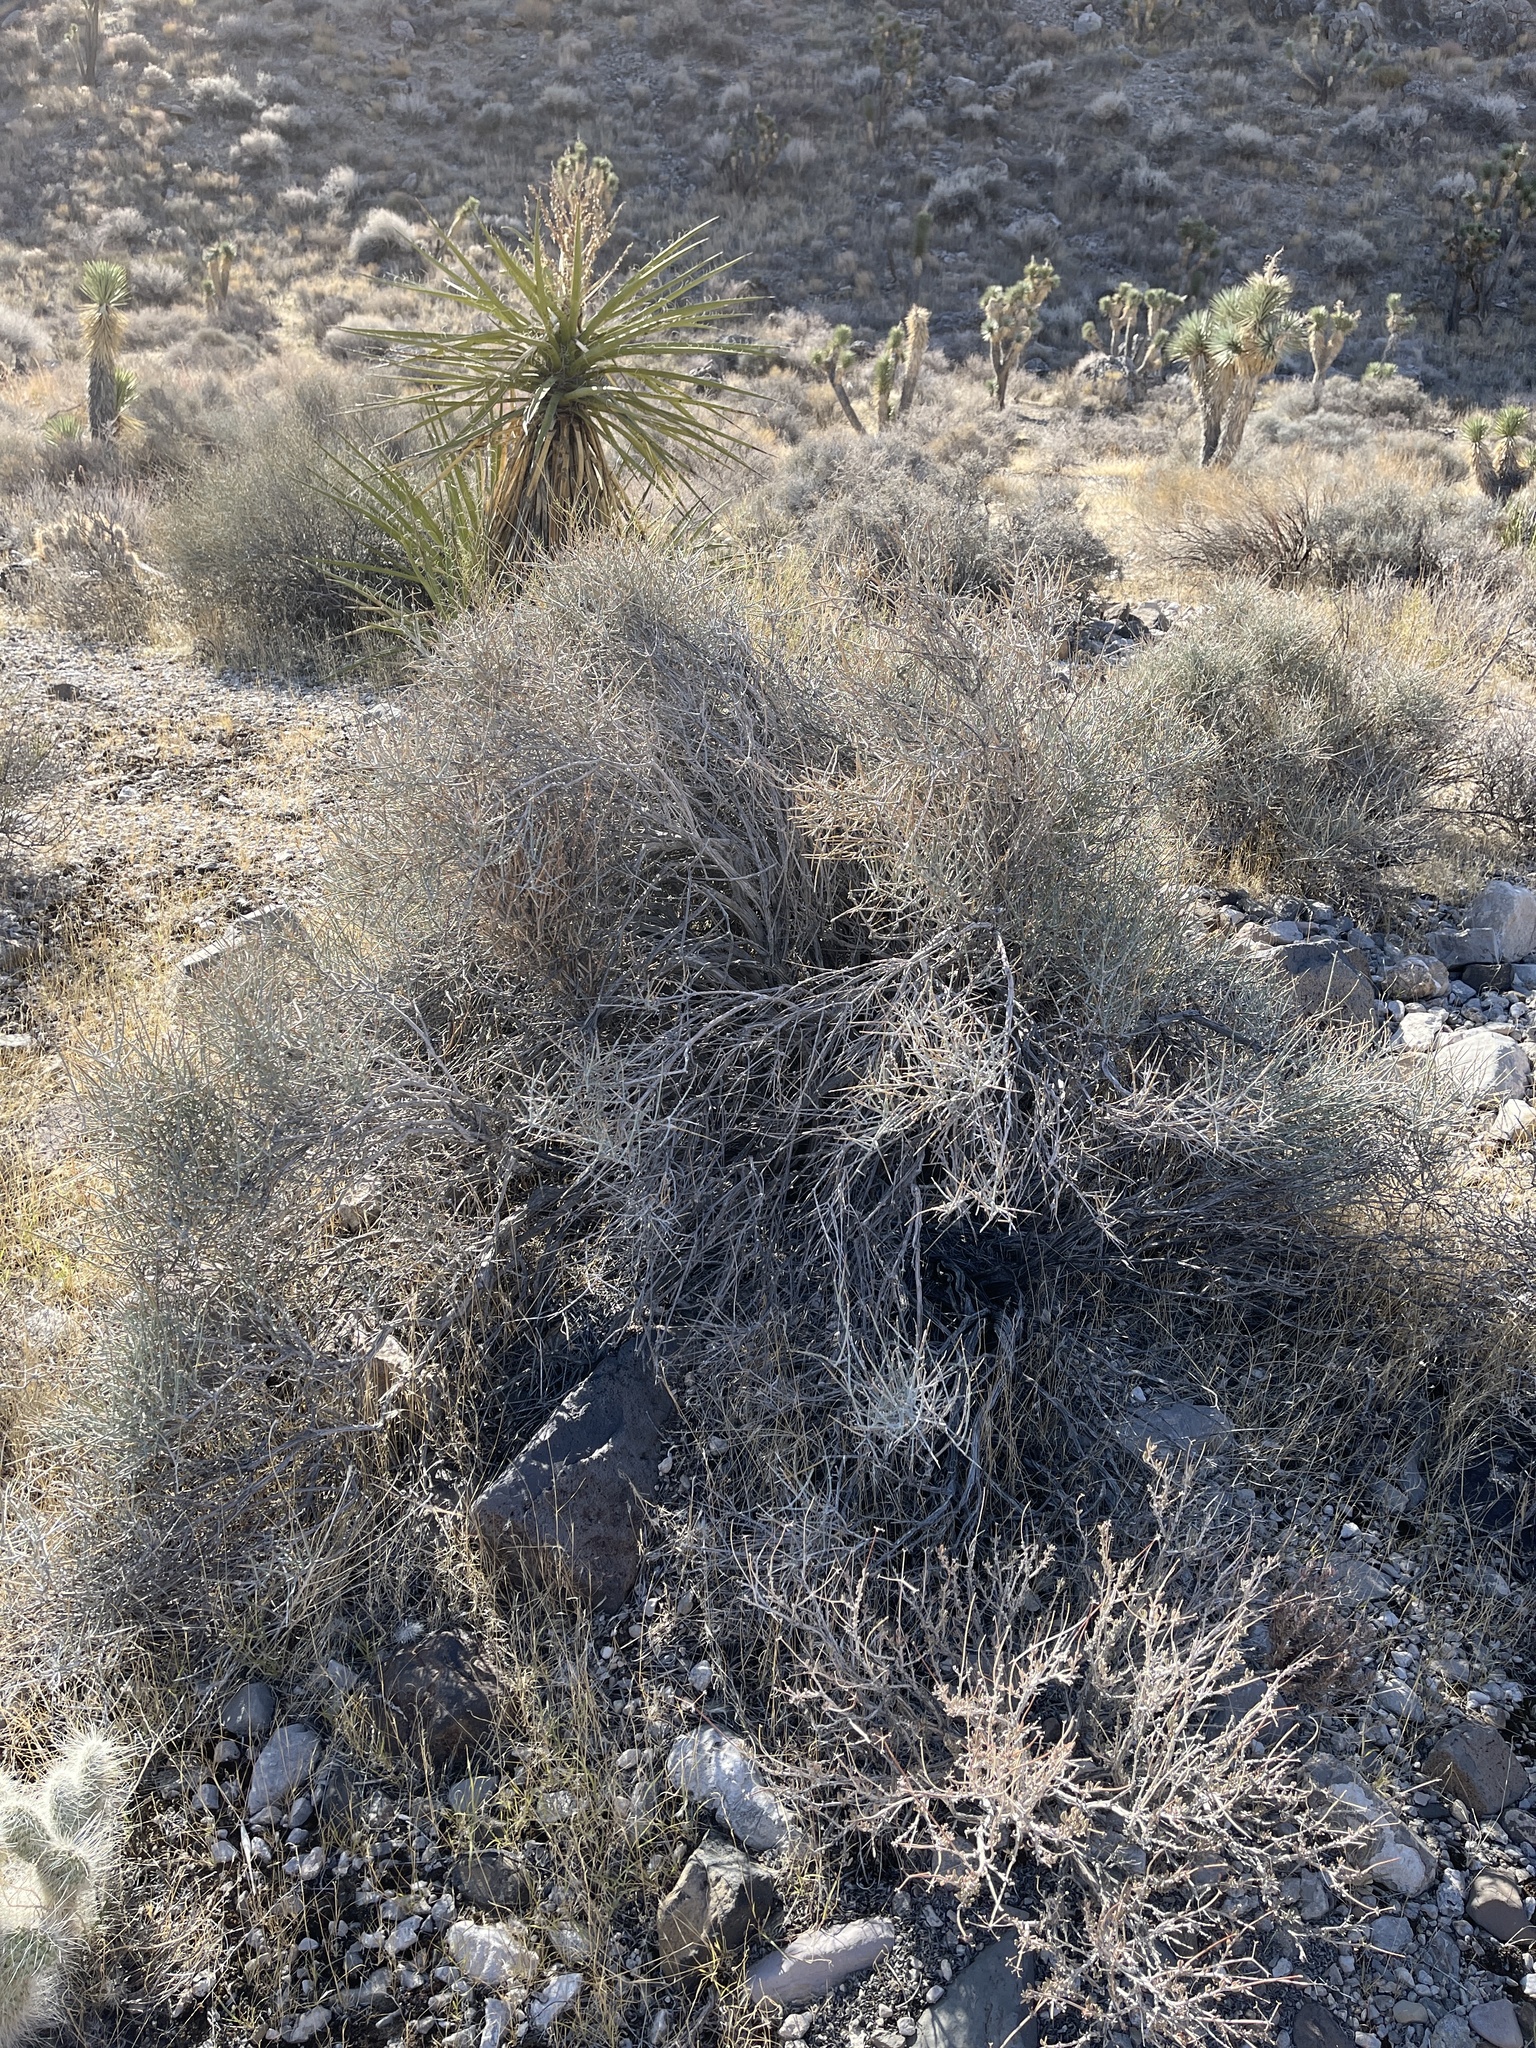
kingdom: Plantae
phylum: Tracheophyta
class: Gnetopsida
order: Ephedrales
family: Ephedraceae
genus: Ephedra
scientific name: Ephedra nevadensis
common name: Gray ephedra
